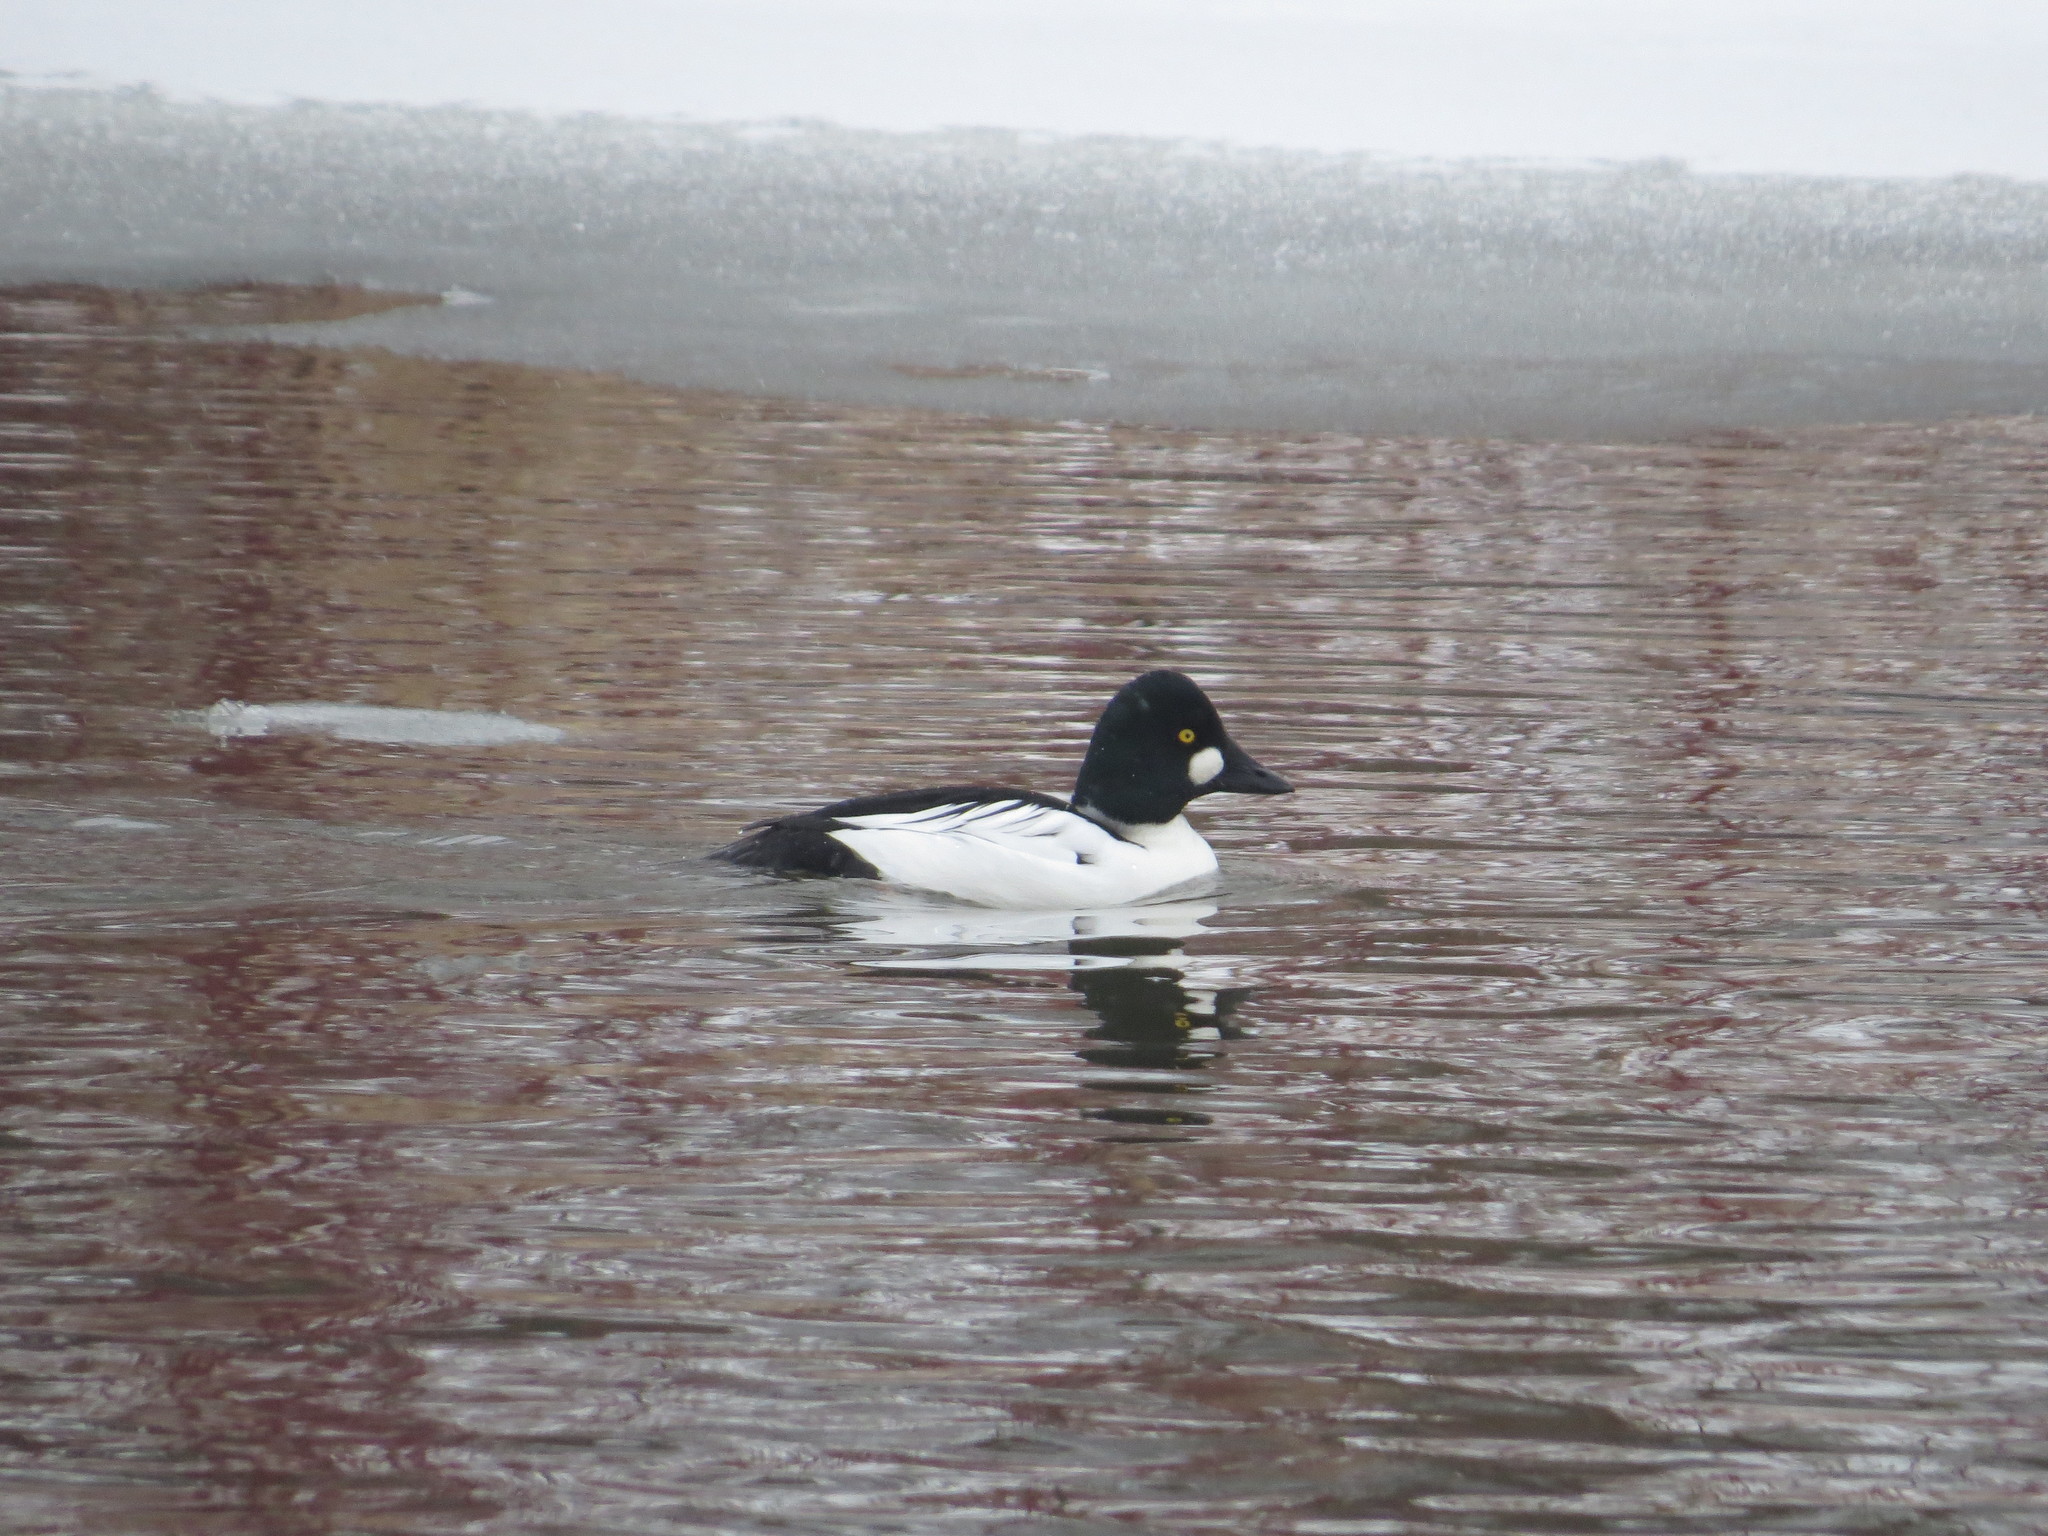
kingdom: Animalia
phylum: Chordata
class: Aves
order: Anseriformes
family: Anatidae
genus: Bucephala
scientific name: Bucephala clangula
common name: Common goldeneye
